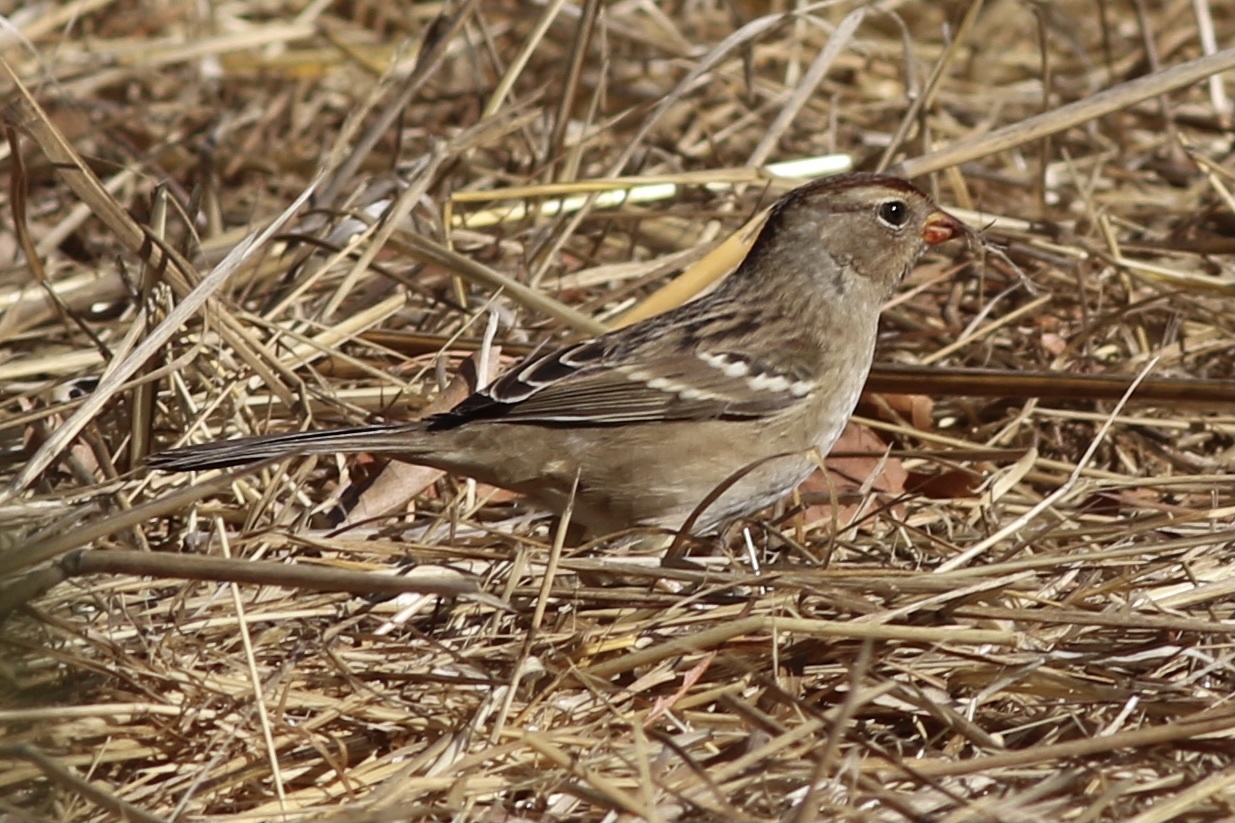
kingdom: Animalia
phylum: Chordata
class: Aves
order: Passeriformes
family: Passerellidae
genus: Zonotrichia
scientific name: Zonotrichia leucophrys
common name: White-crowned sparrow
